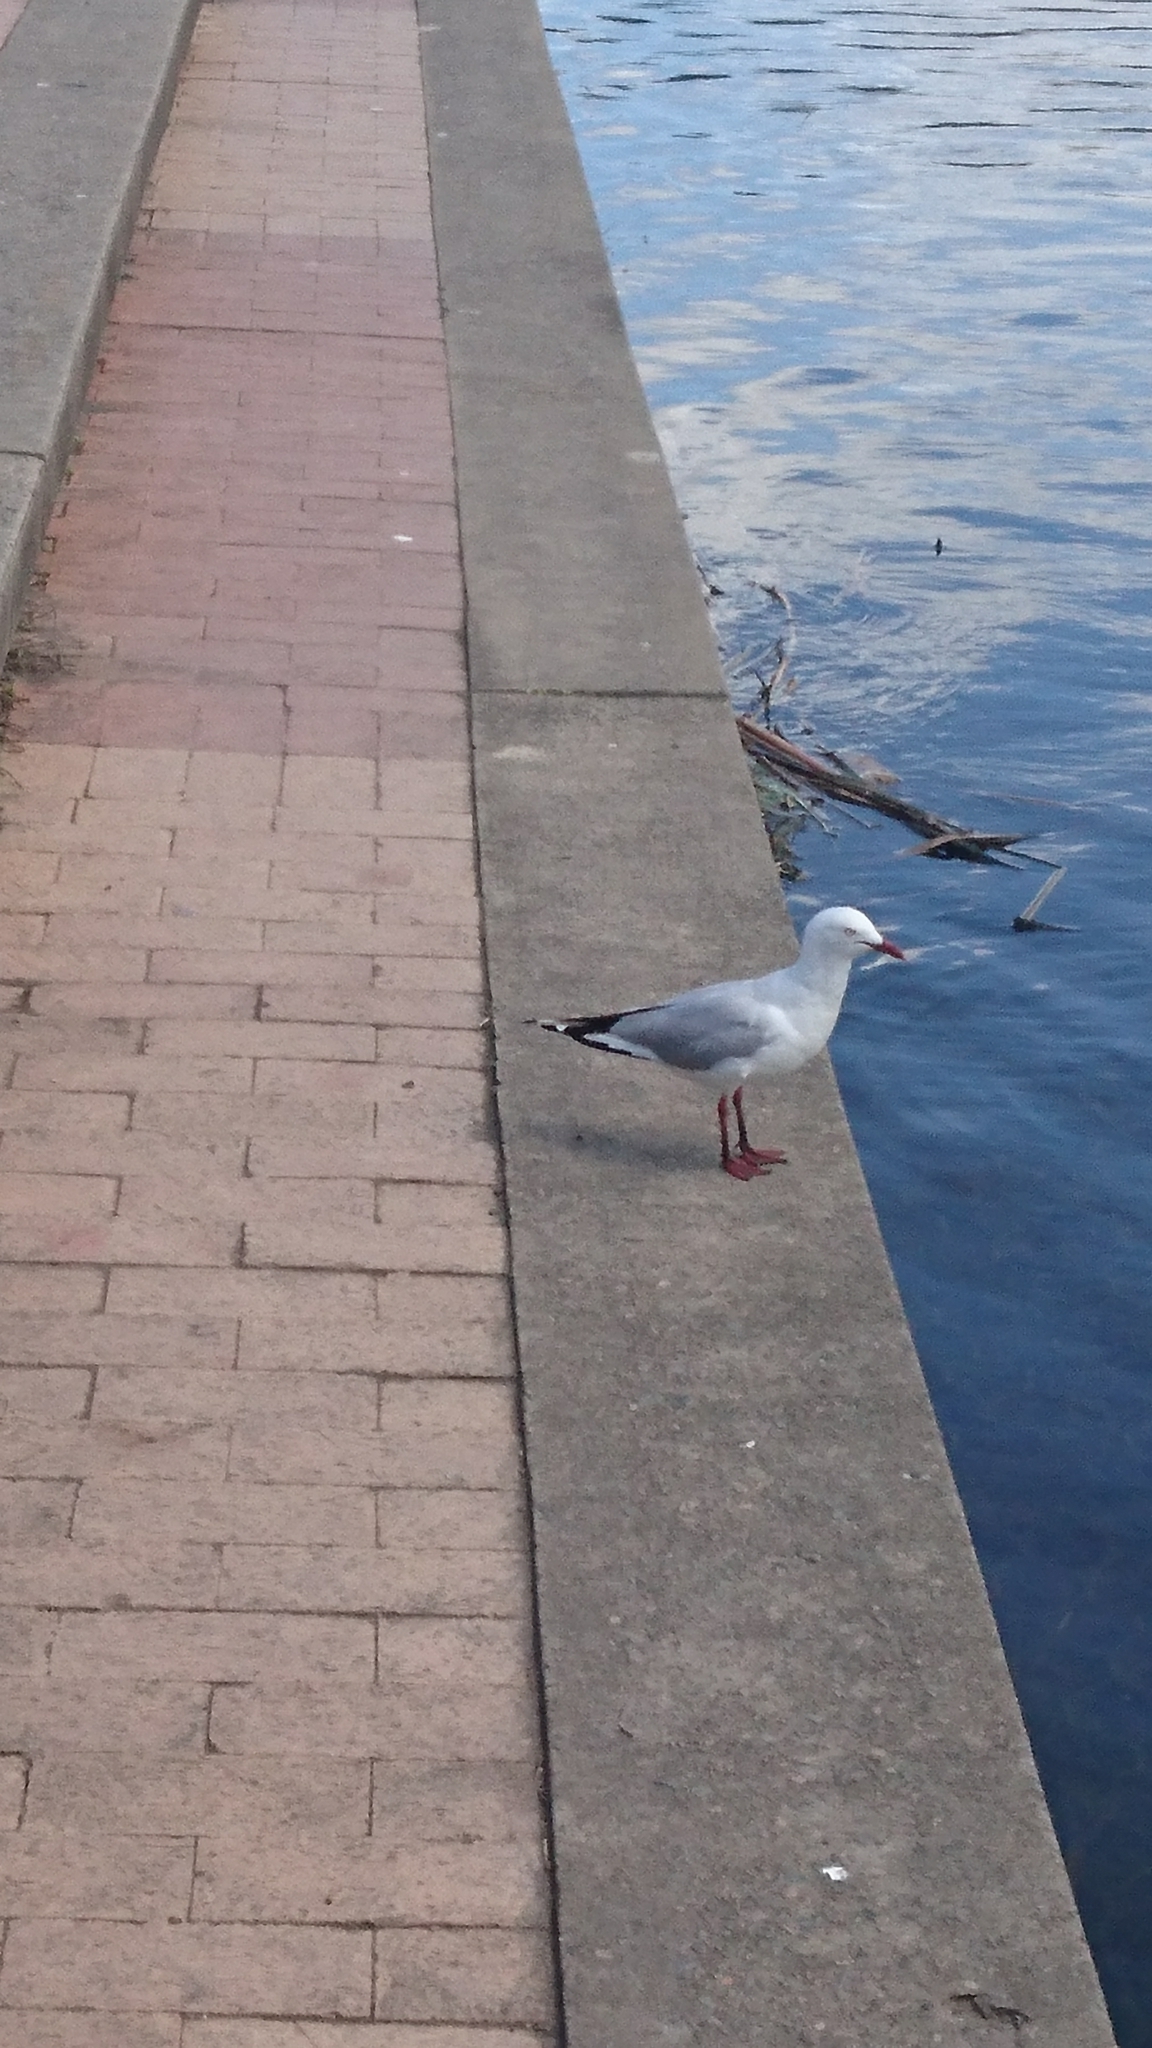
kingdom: Animalia
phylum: Chordata
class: Aves
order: Charadriiformes
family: Laridae
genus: Chroicocephalus
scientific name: Chroicocephalus novaehollandiae
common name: Silver gull
